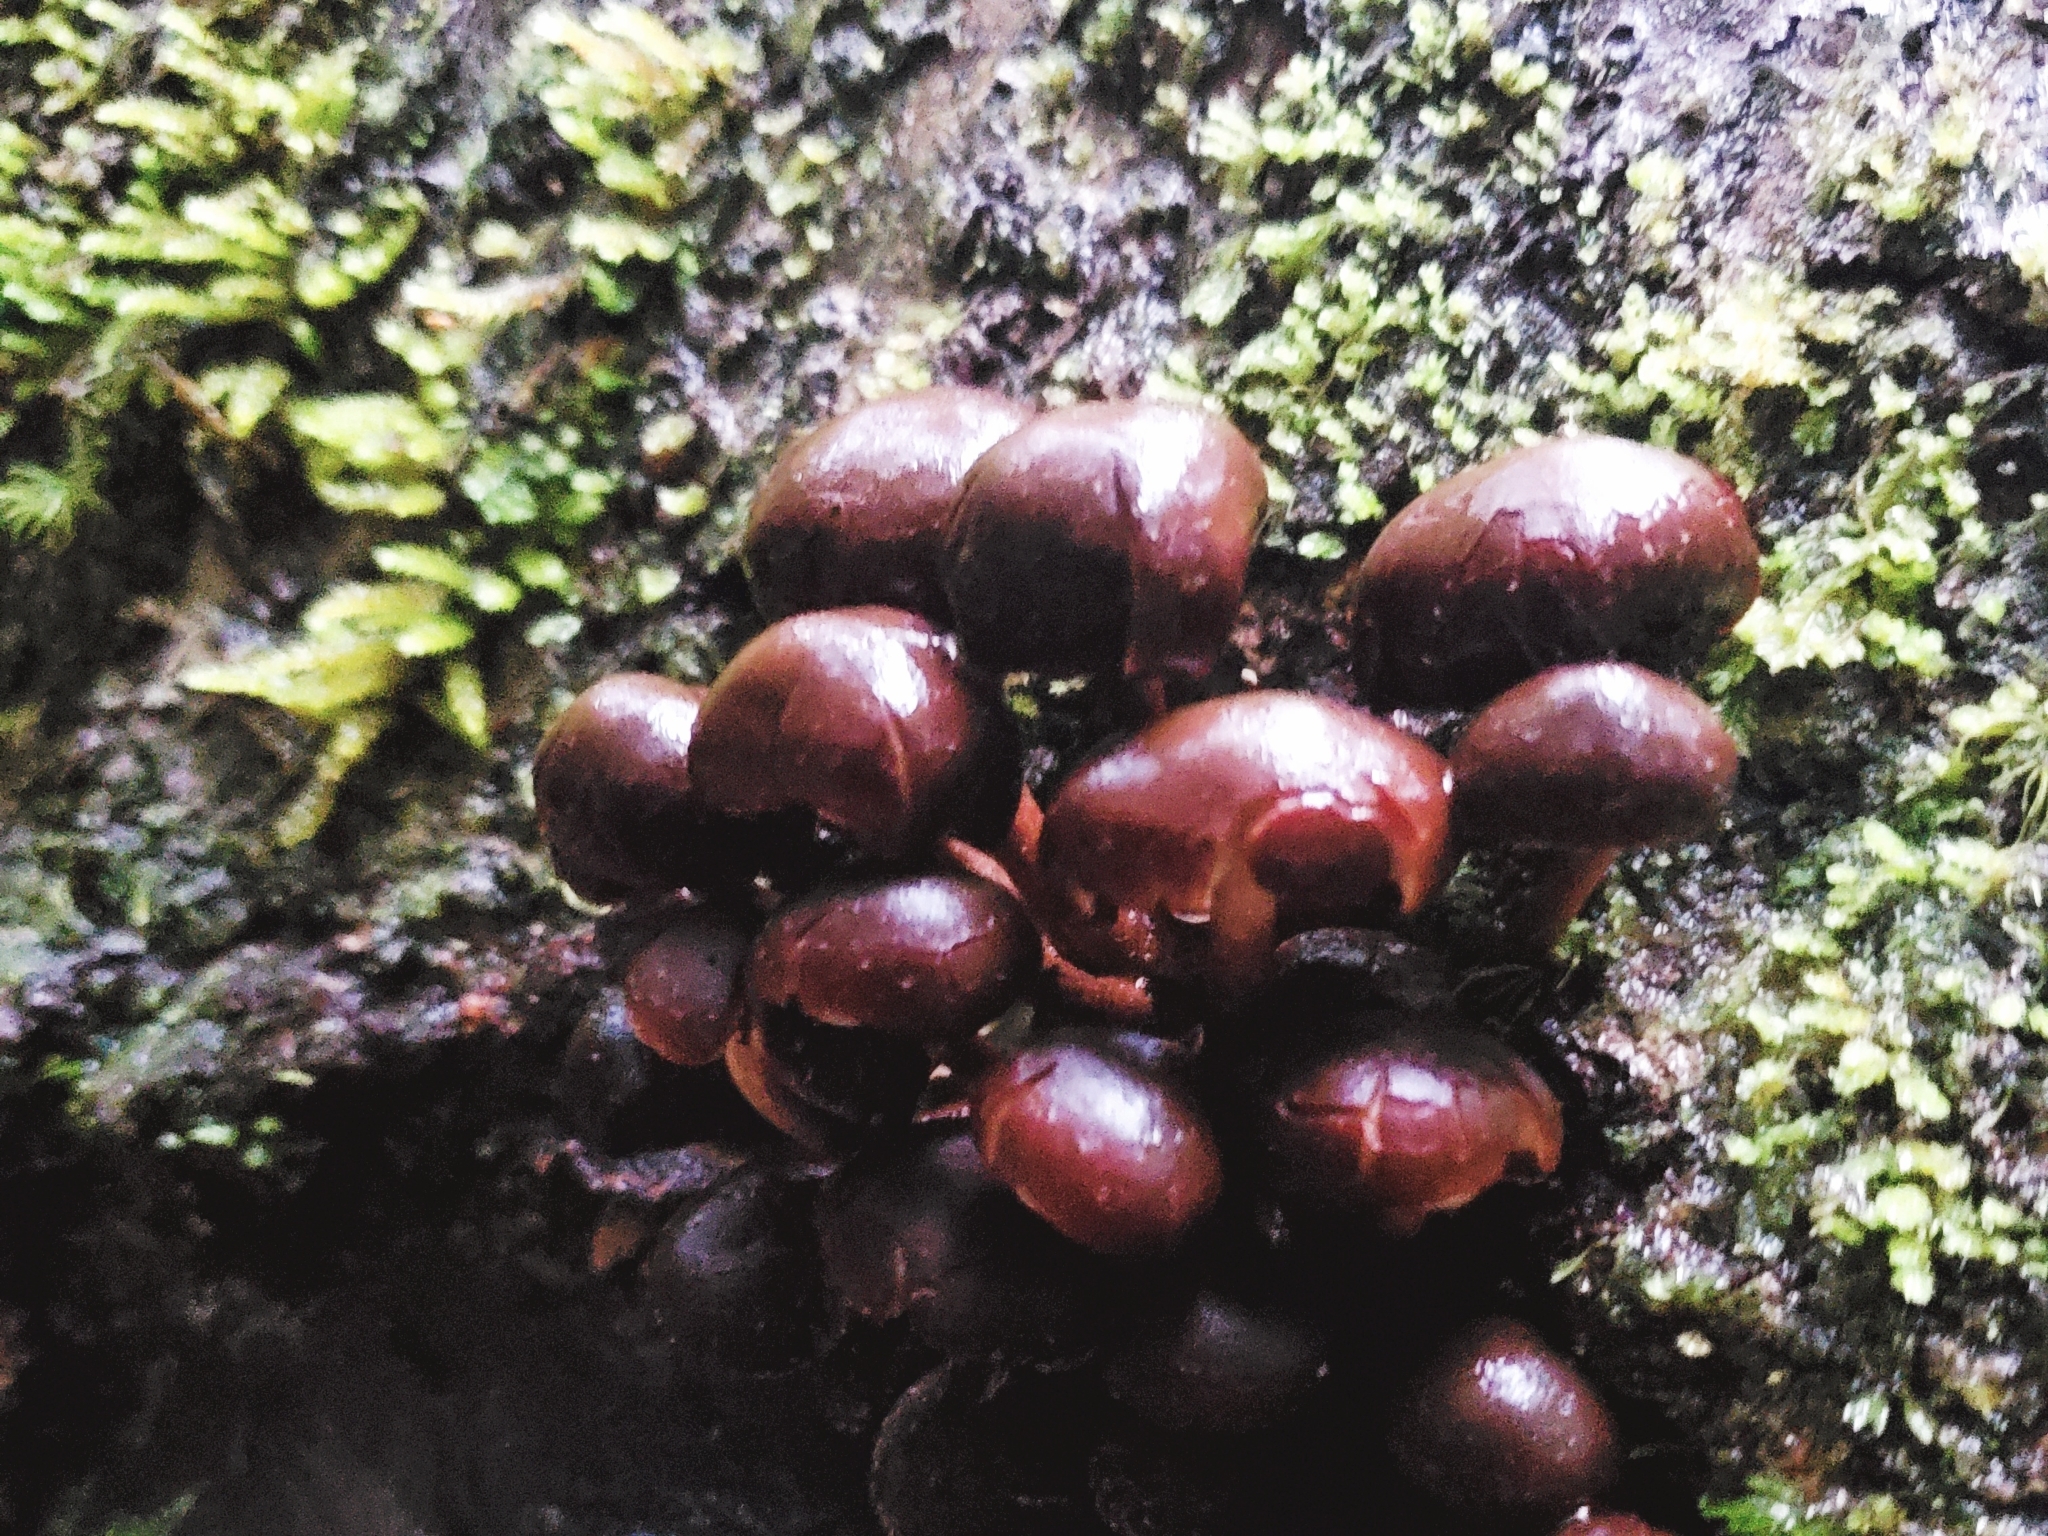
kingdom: Fungi
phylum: Basidiomycota
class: Agaricomycetes
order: Agaricales
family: Strophariaceae
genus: Hypholoma
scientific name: Hypholoma brunneum
